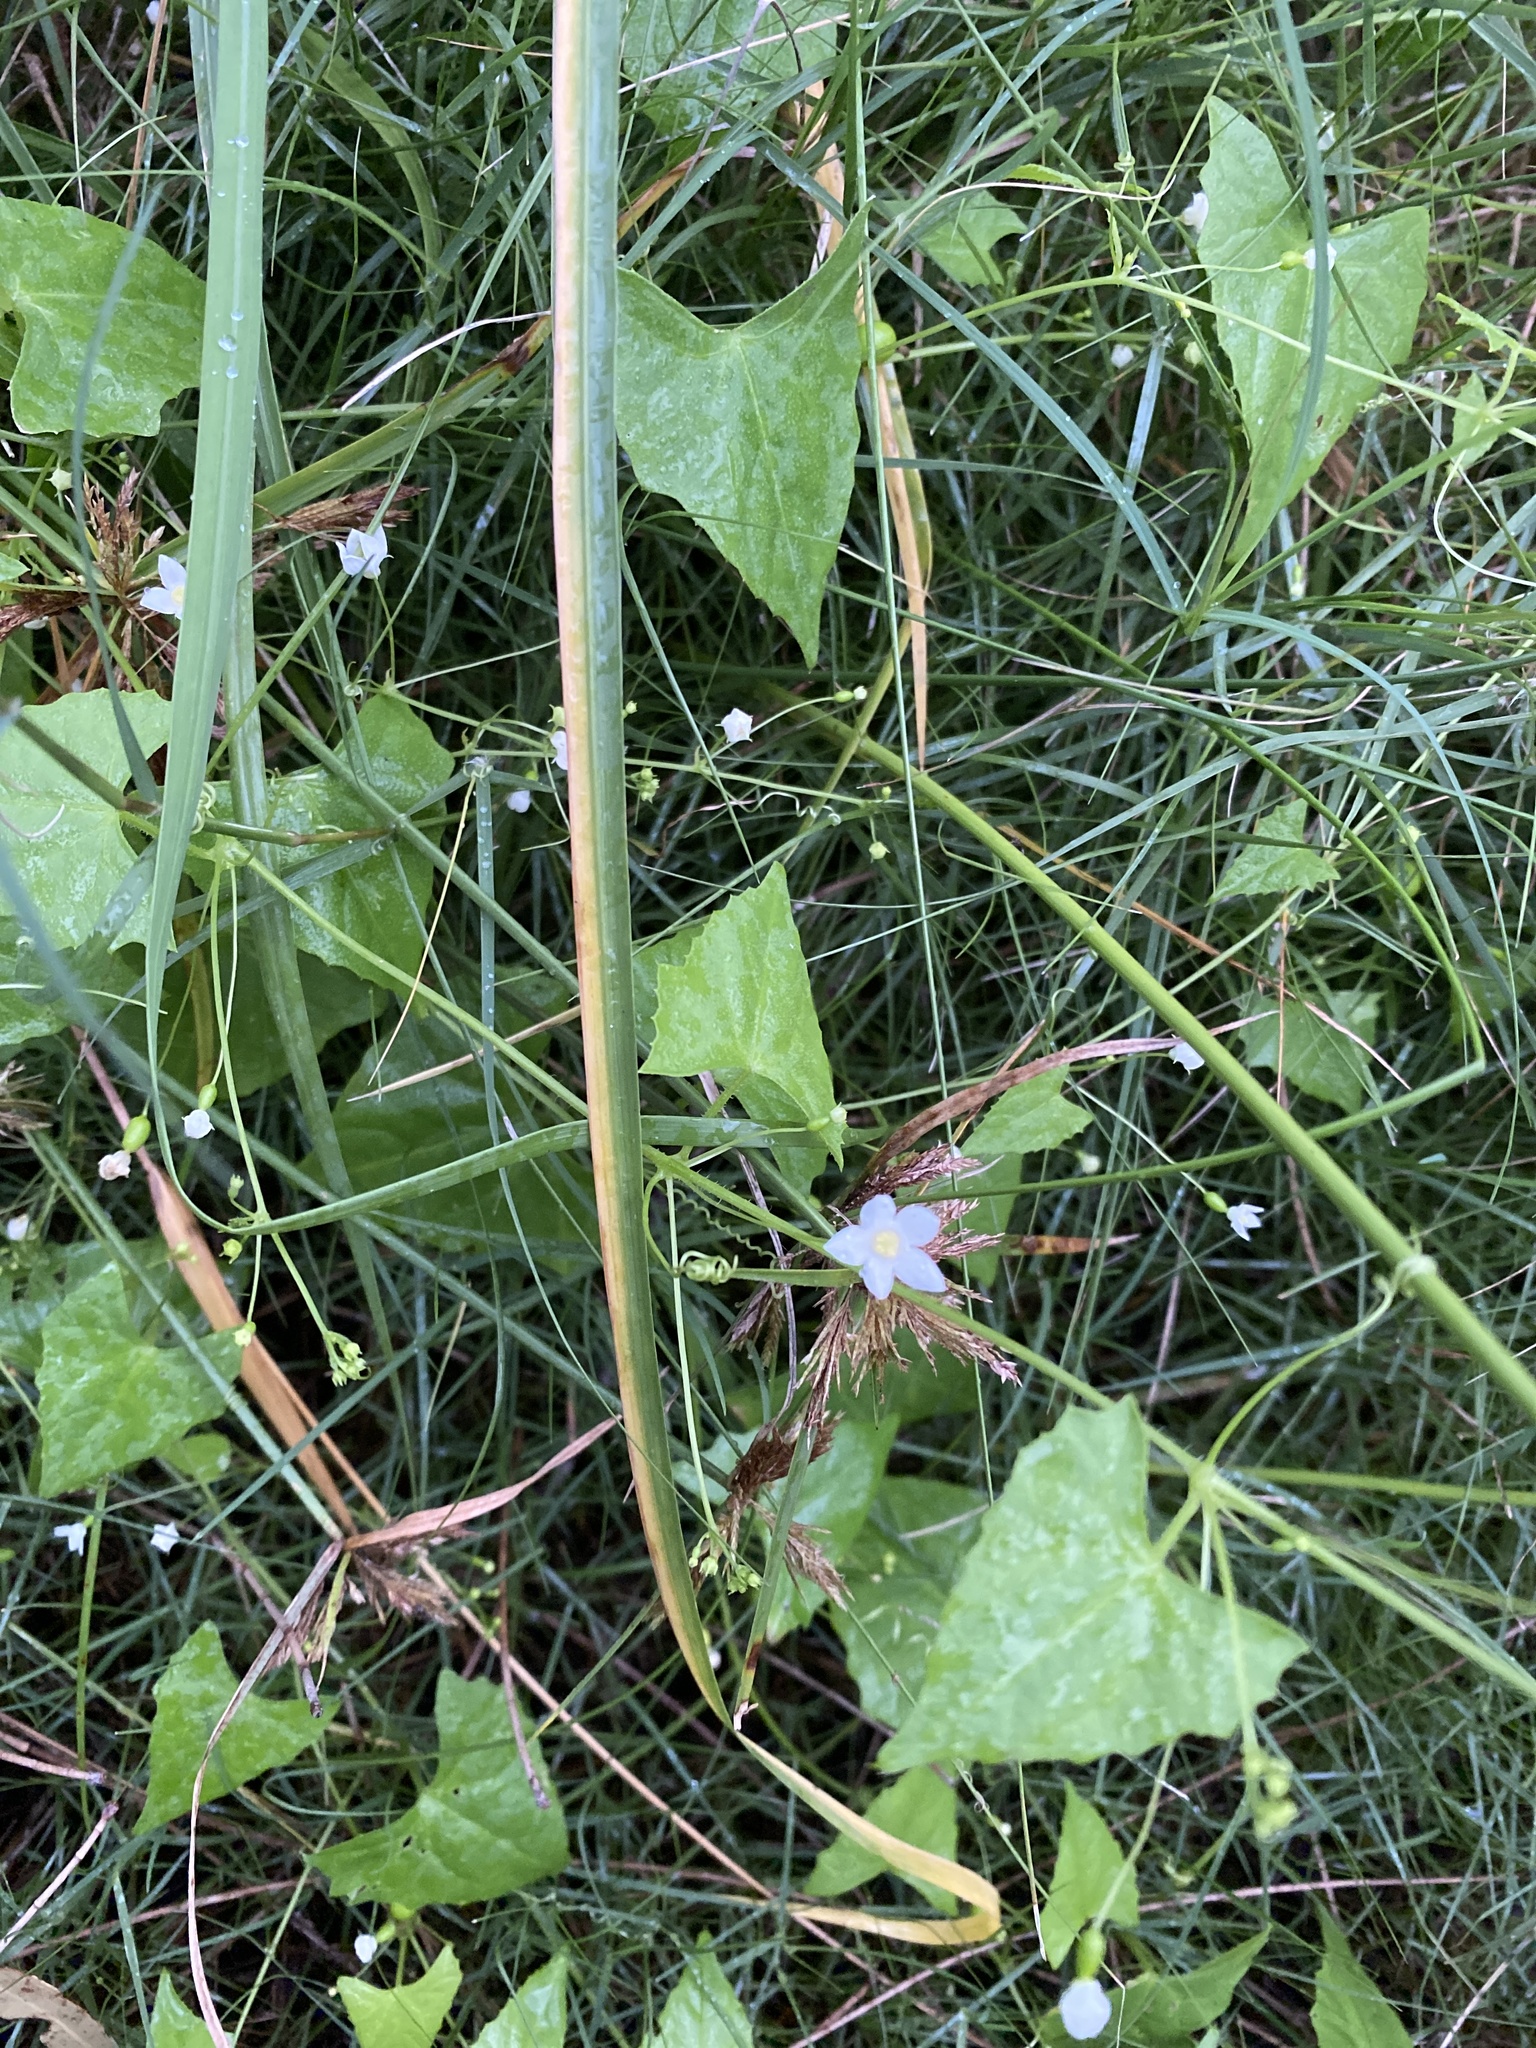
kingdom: Plantae
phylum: Tracheophyta
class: Magnoliopsida
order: Cucurbitales
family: Cucurbitaceae
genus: Zehneria
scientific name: Zehneria cunninghamii
